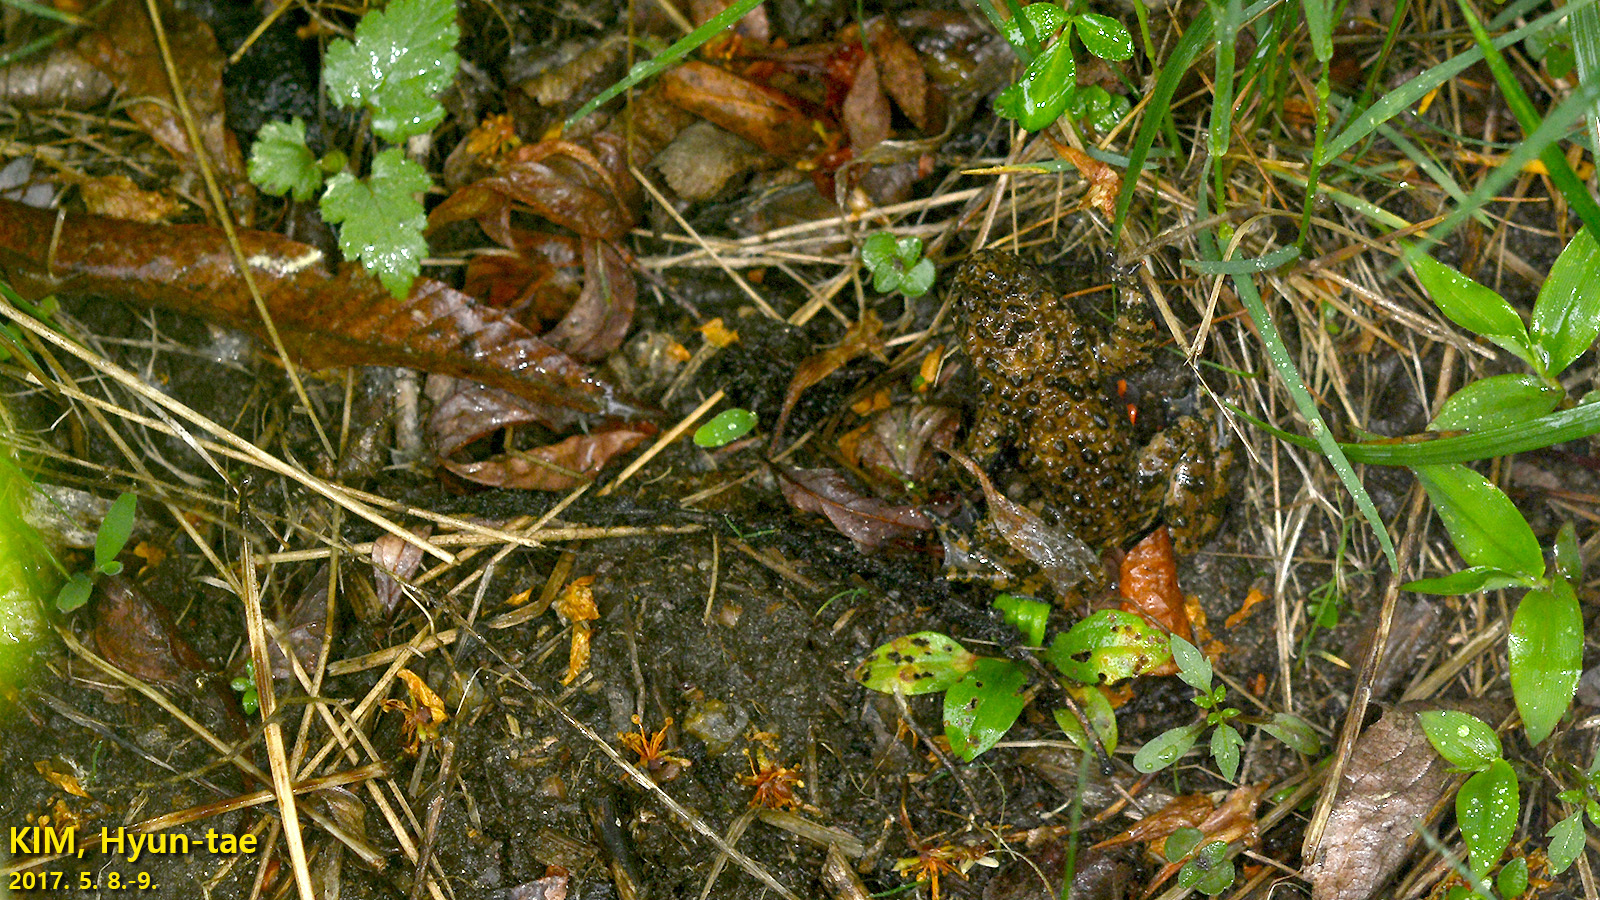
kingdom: Animalia
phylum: Chordata
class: Amphibia
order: Anura
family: Bombinatoridae
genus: Bombina
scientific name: Bombina orientalis
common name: Oriental firebelly toad
